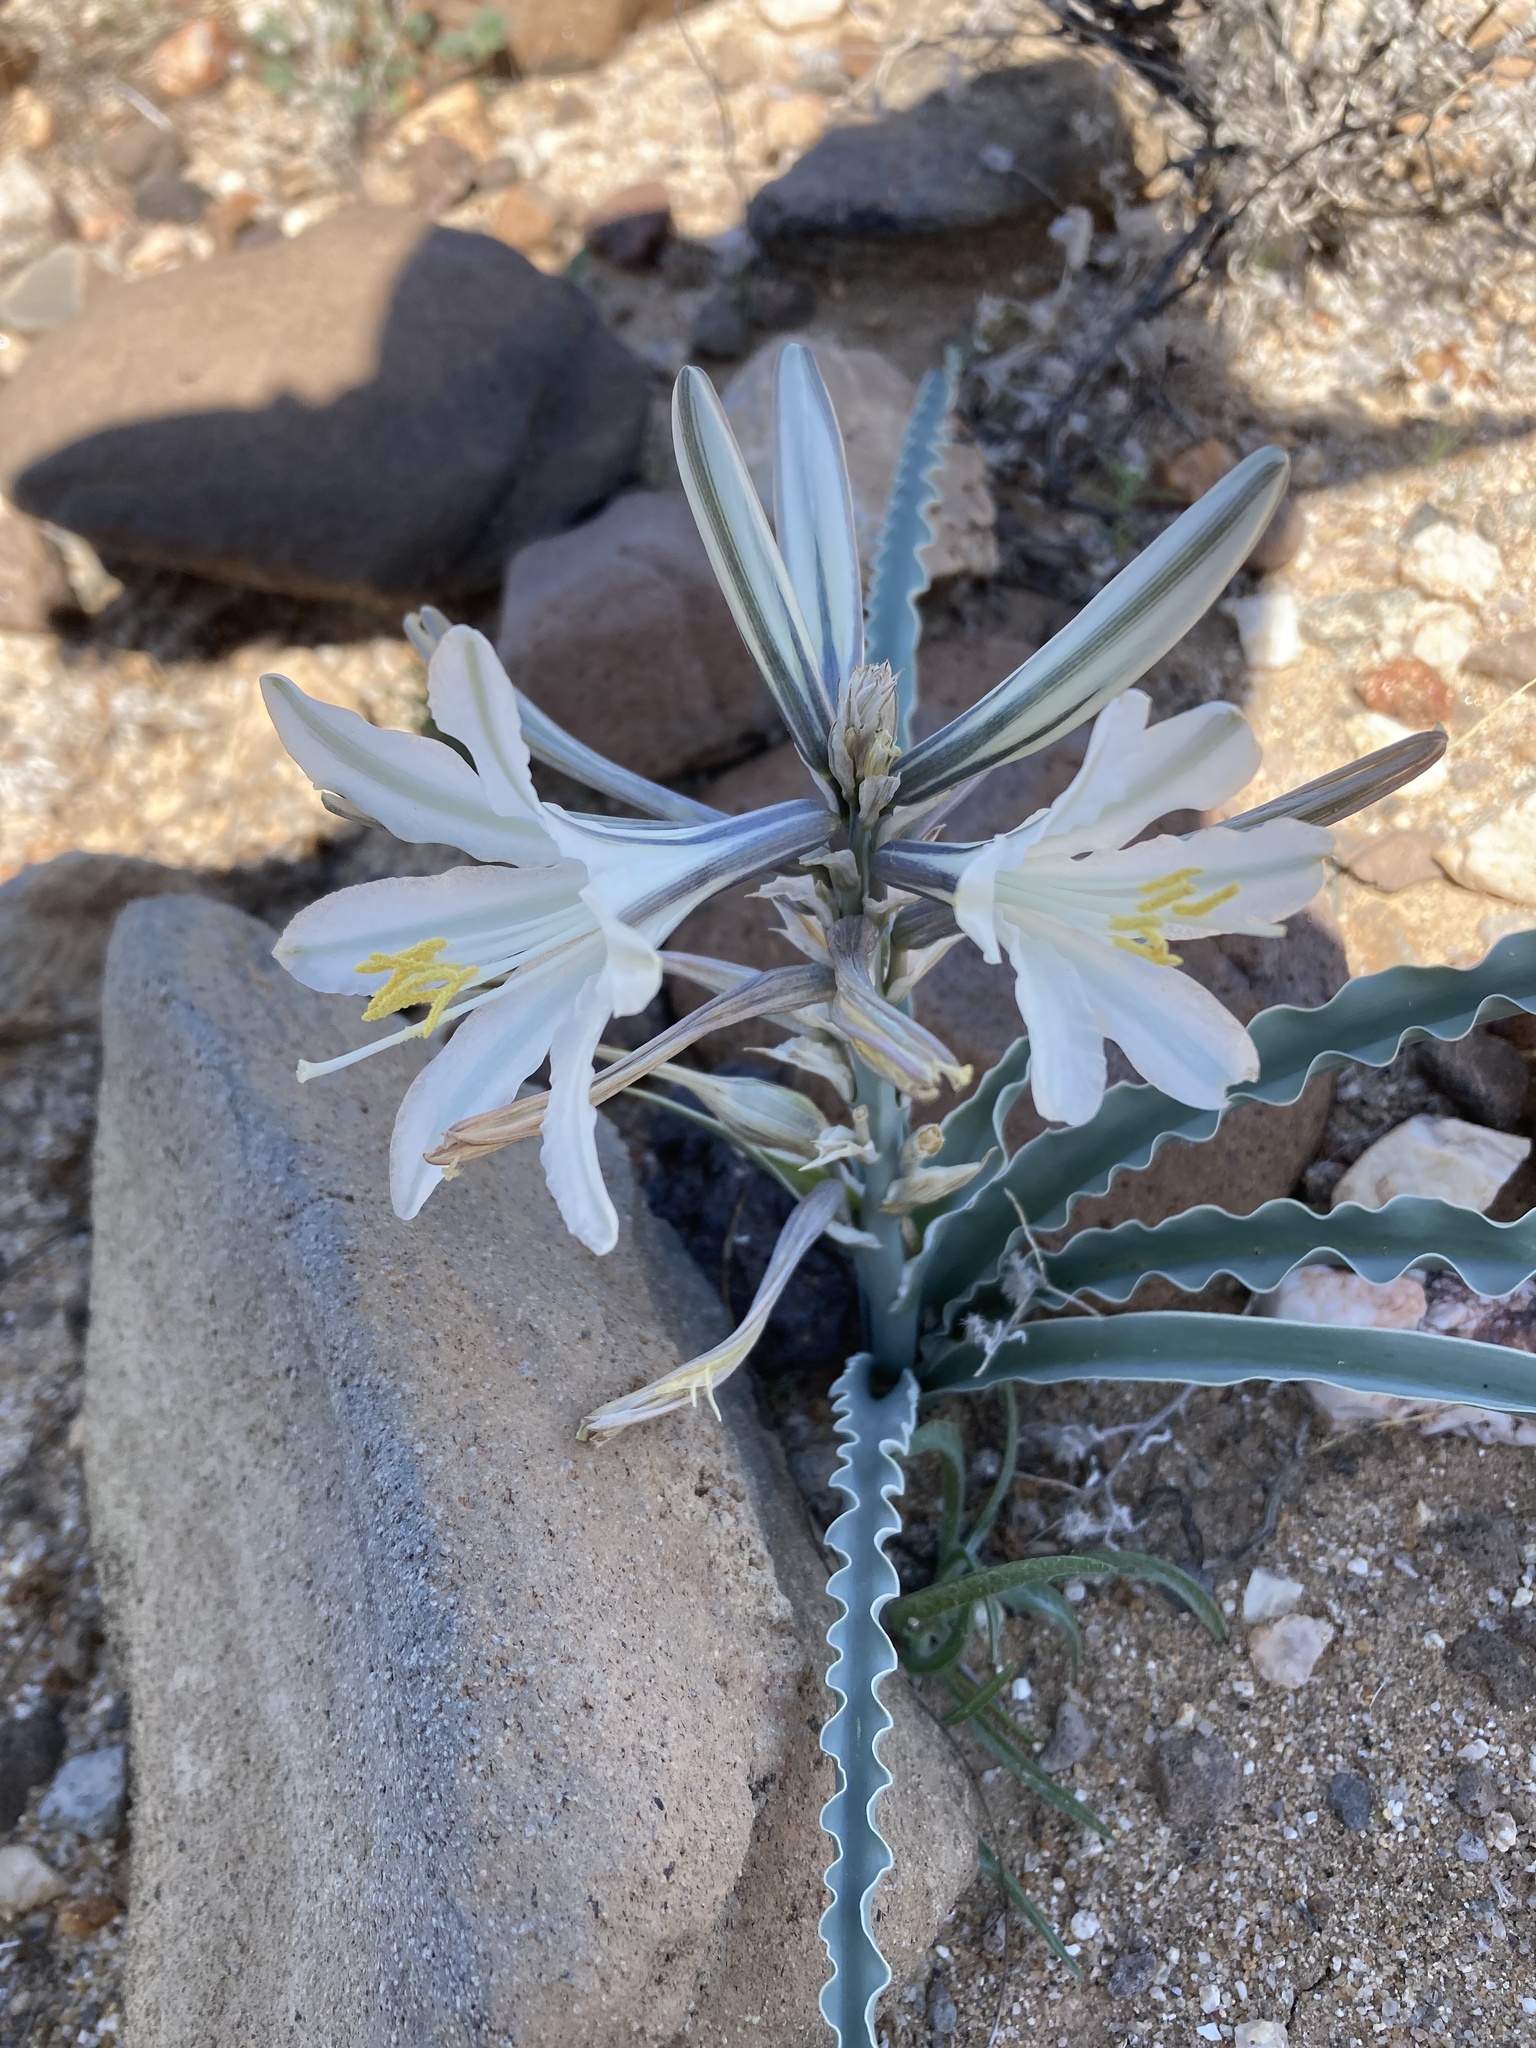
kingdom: Plantae
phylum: Tracheophyta
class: Liliopsida
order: Asparagales
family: Asparagaceae
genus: Hesperocallis
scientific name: Hesperocallis undulata
